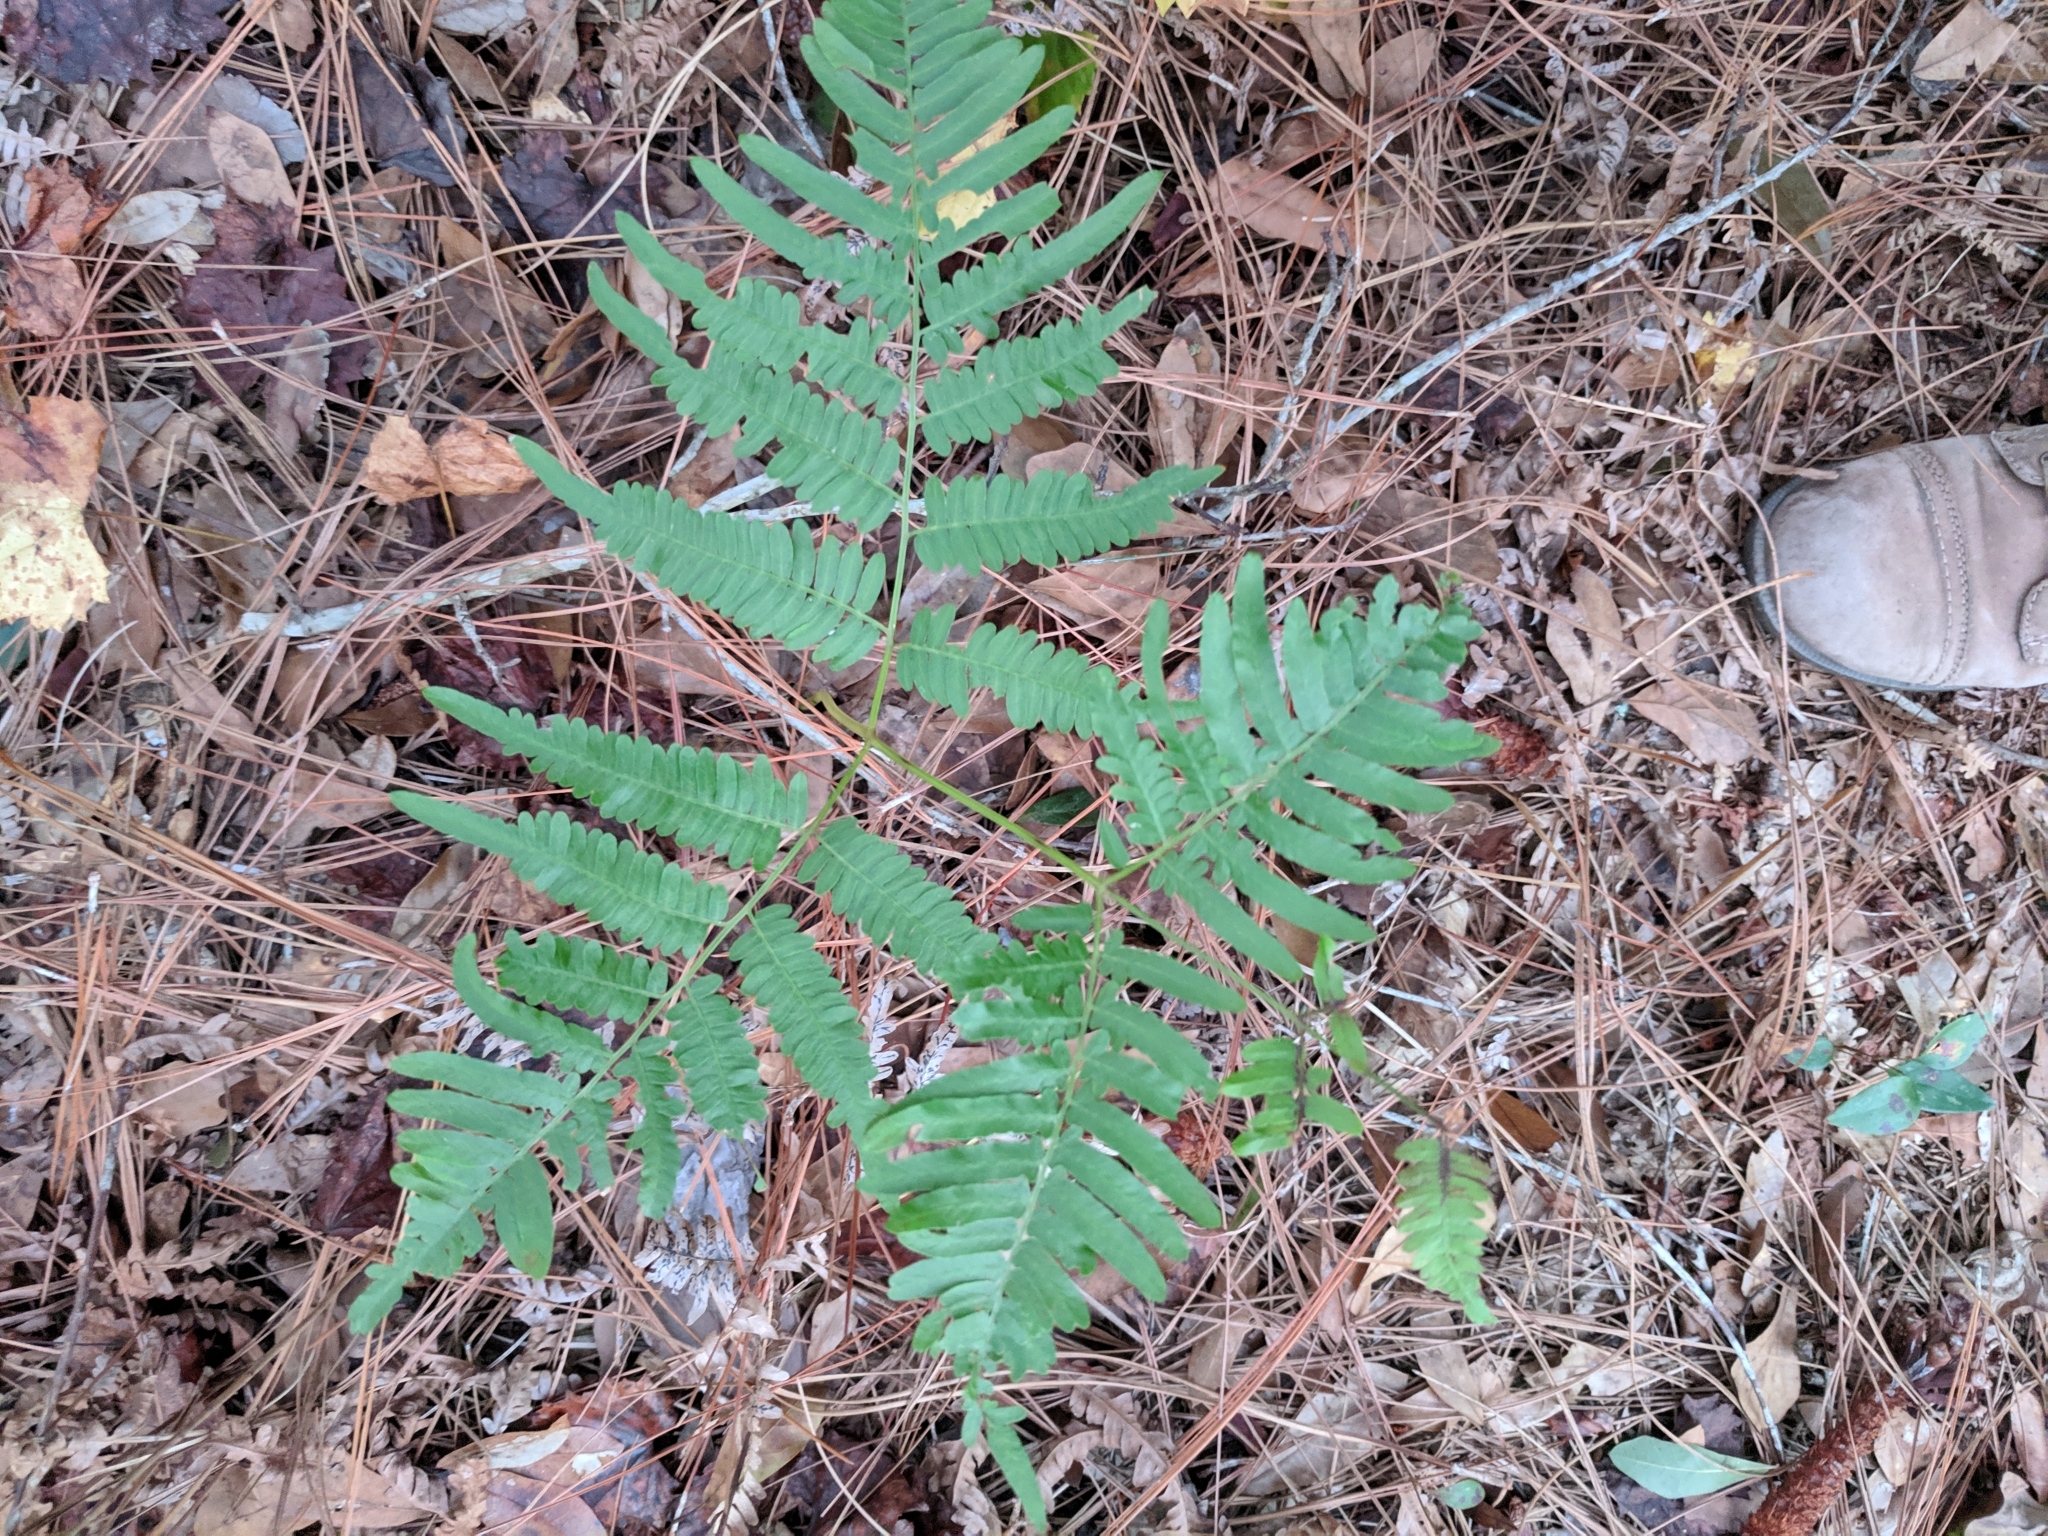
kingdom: Plantae
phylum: Tracheophyta
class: Polypodiopsida
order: Polypodiales
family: Dennstaedtiaceae
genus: Pteridium
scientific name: Pteridium aquilinum
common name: Bracken
